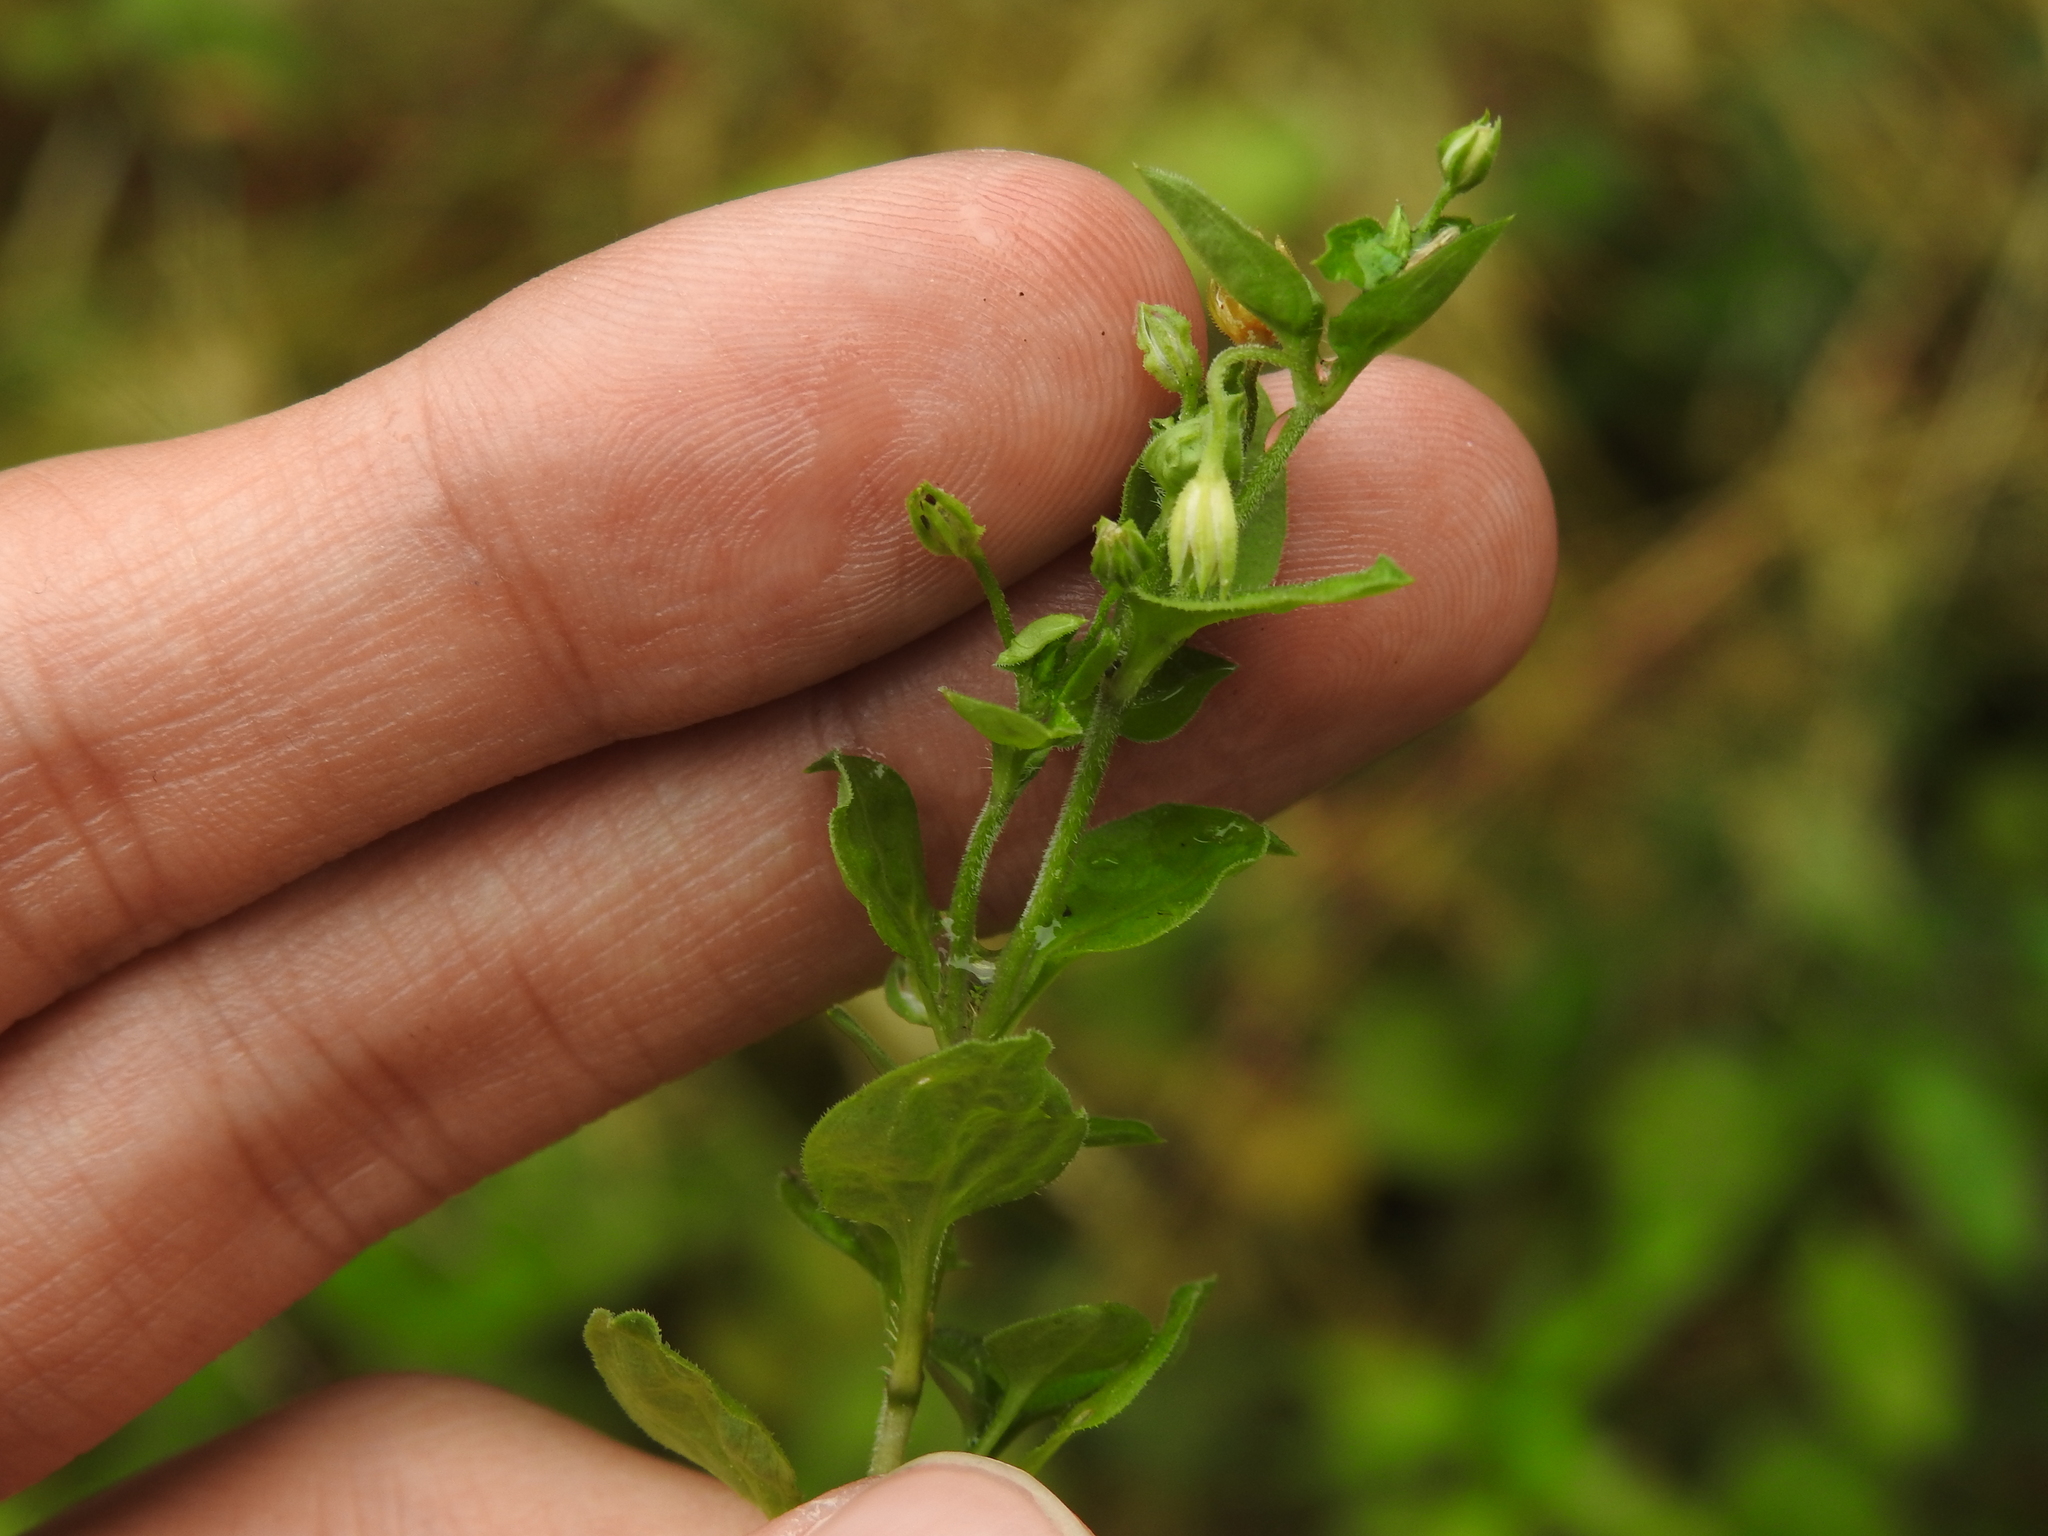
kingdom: Plantae
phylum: Tracheophyta
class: Magnoliopsida
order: Caryophyllales
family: Caryophyllaceae
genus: Moehringia
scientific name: Moehringia trinervia
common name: Three-nerved sandwort
